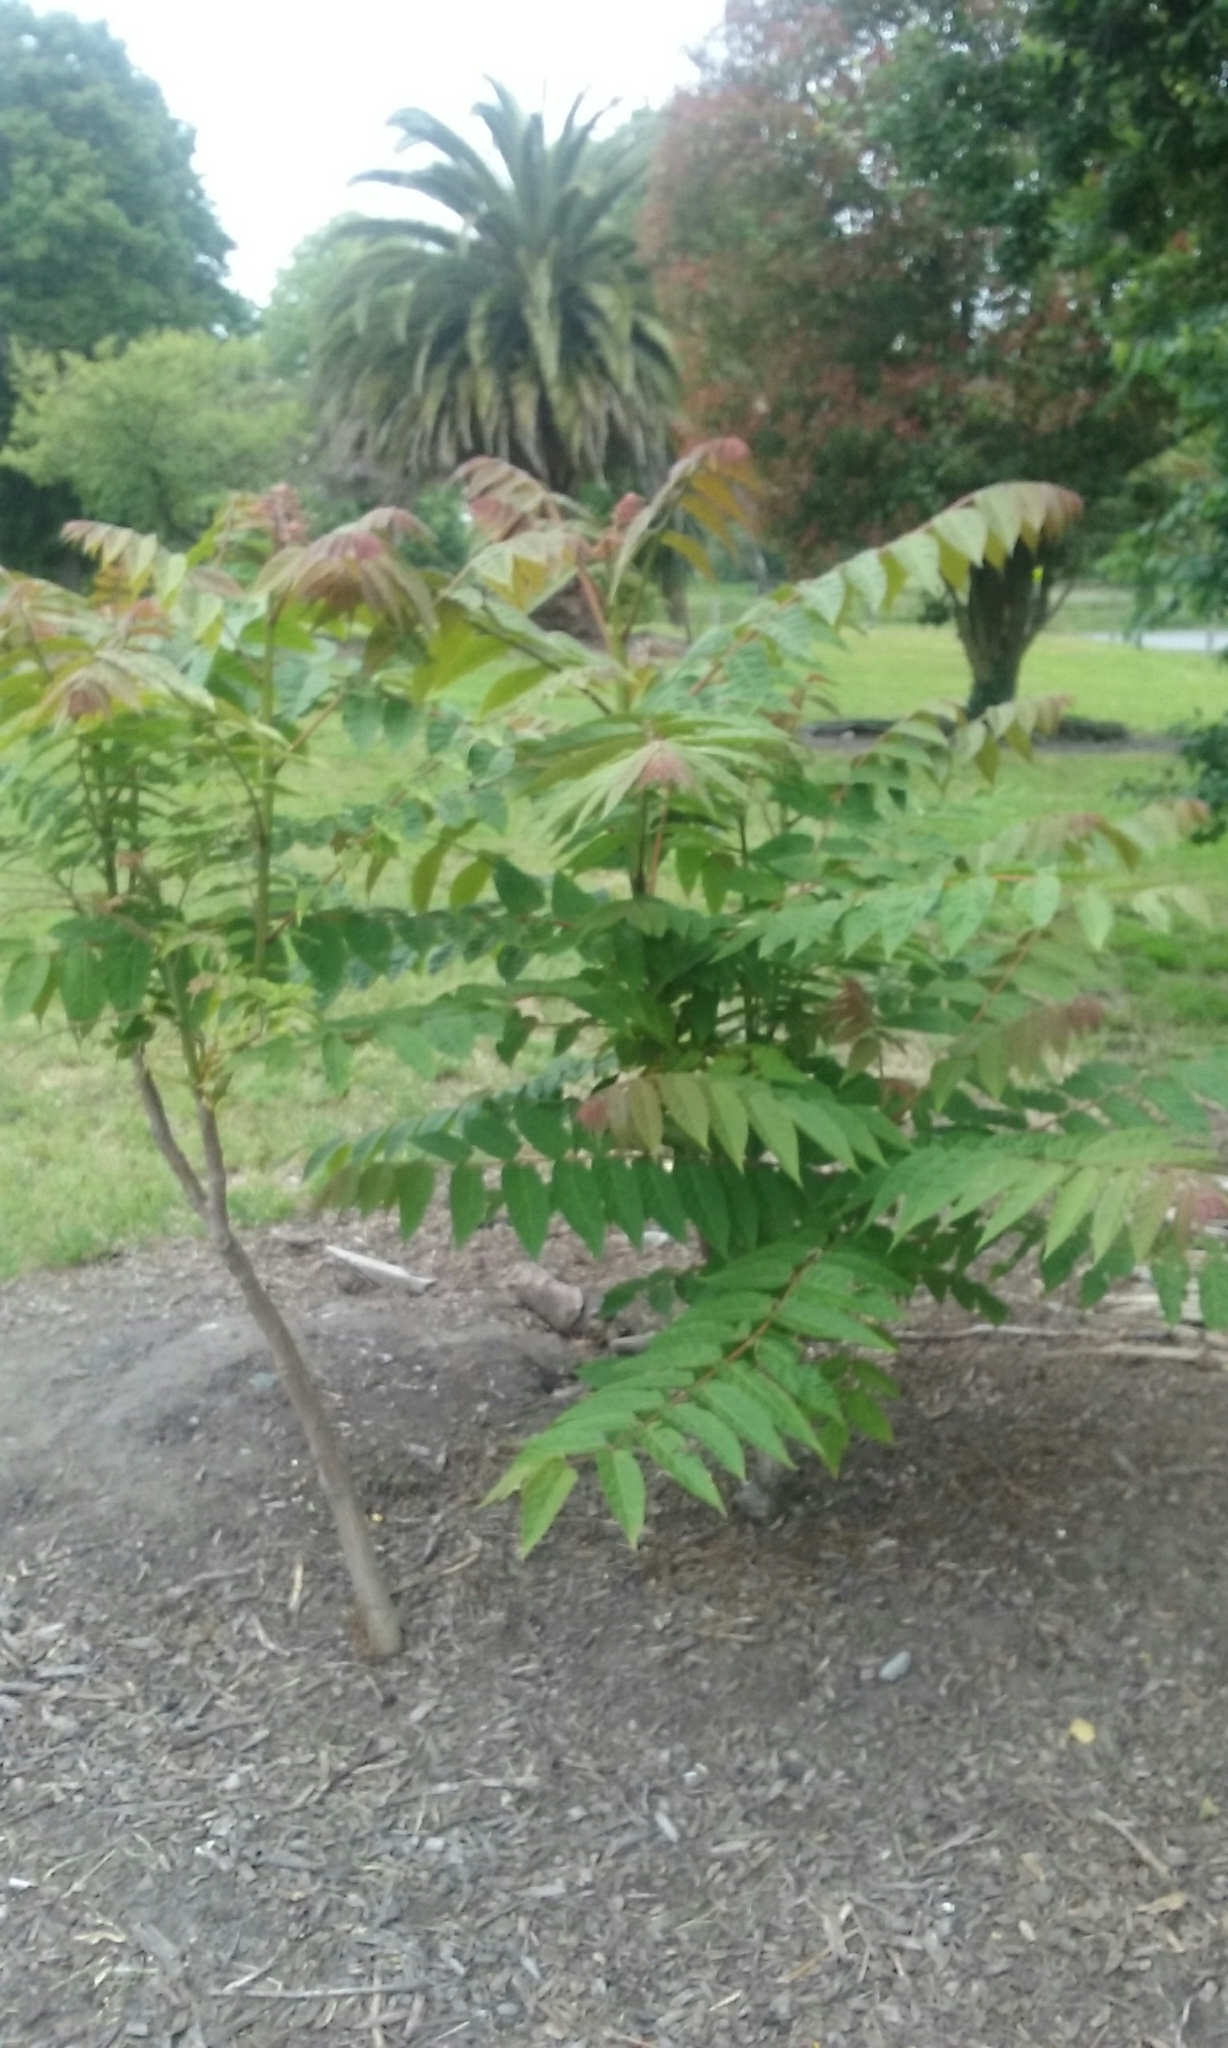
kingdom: Plantae
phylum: Tracheophyta
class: Magnoliopsida
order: Sapindales
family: Simaroubaceae
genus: Ailanthus
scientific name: Ailanthus altissima
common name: Tree-of-heaven
